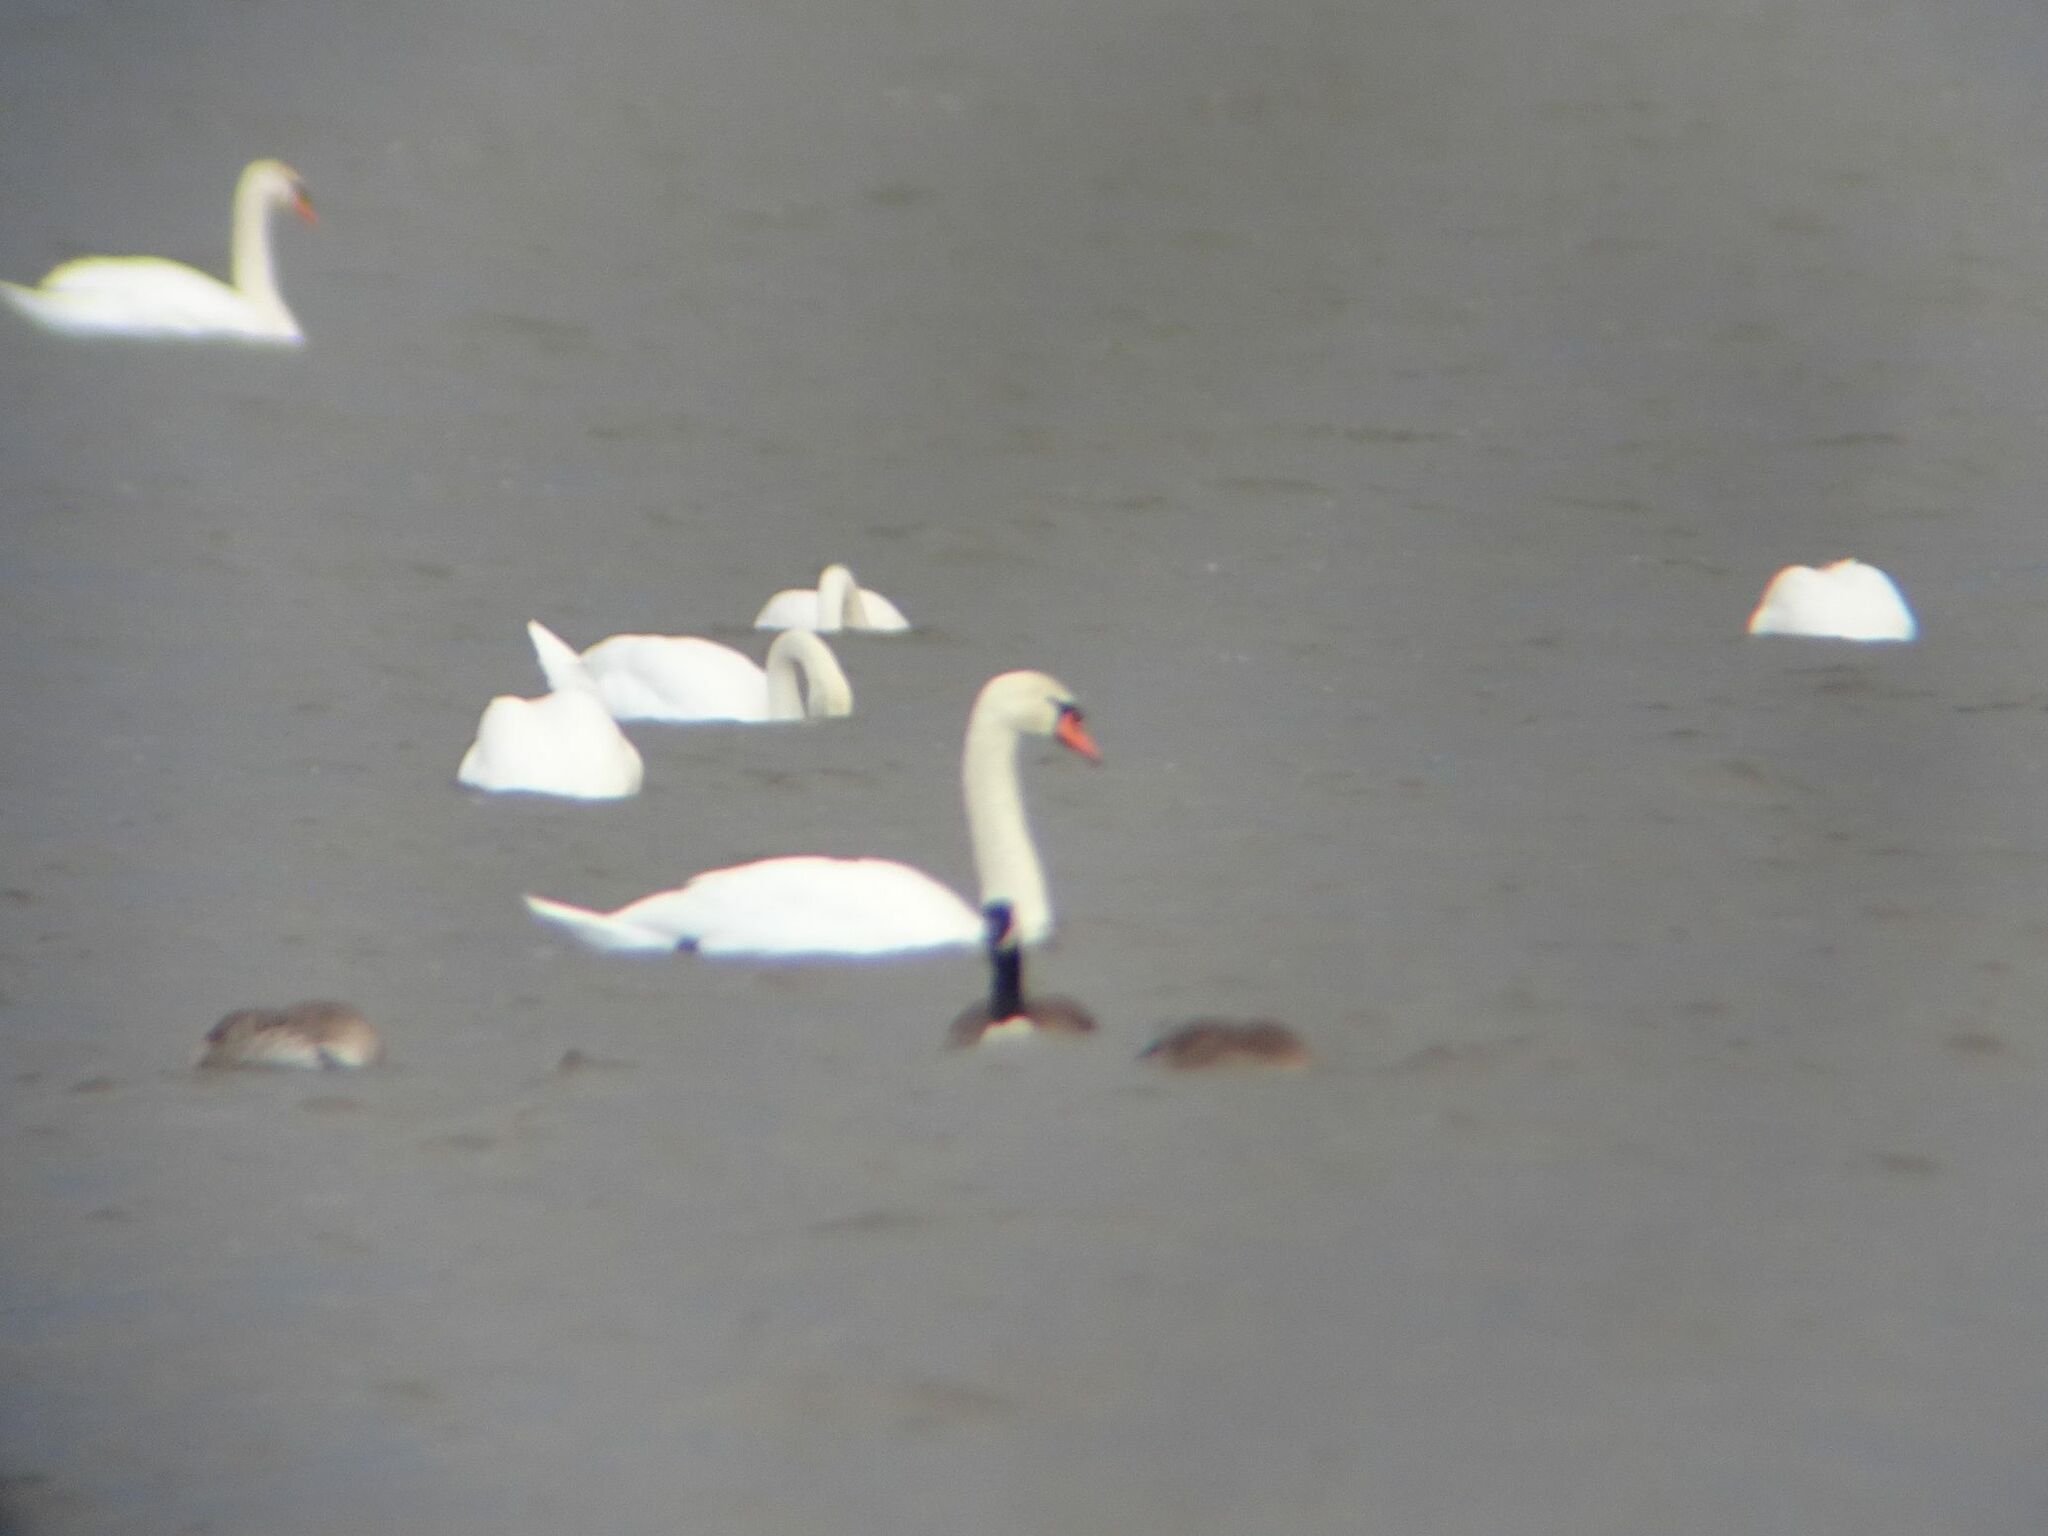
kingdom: Animalia
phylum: Chordata
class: Aves
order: Anseriformes
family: Anatidae
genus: Cygnus
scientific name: Cygnus olor
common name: Mute swan
